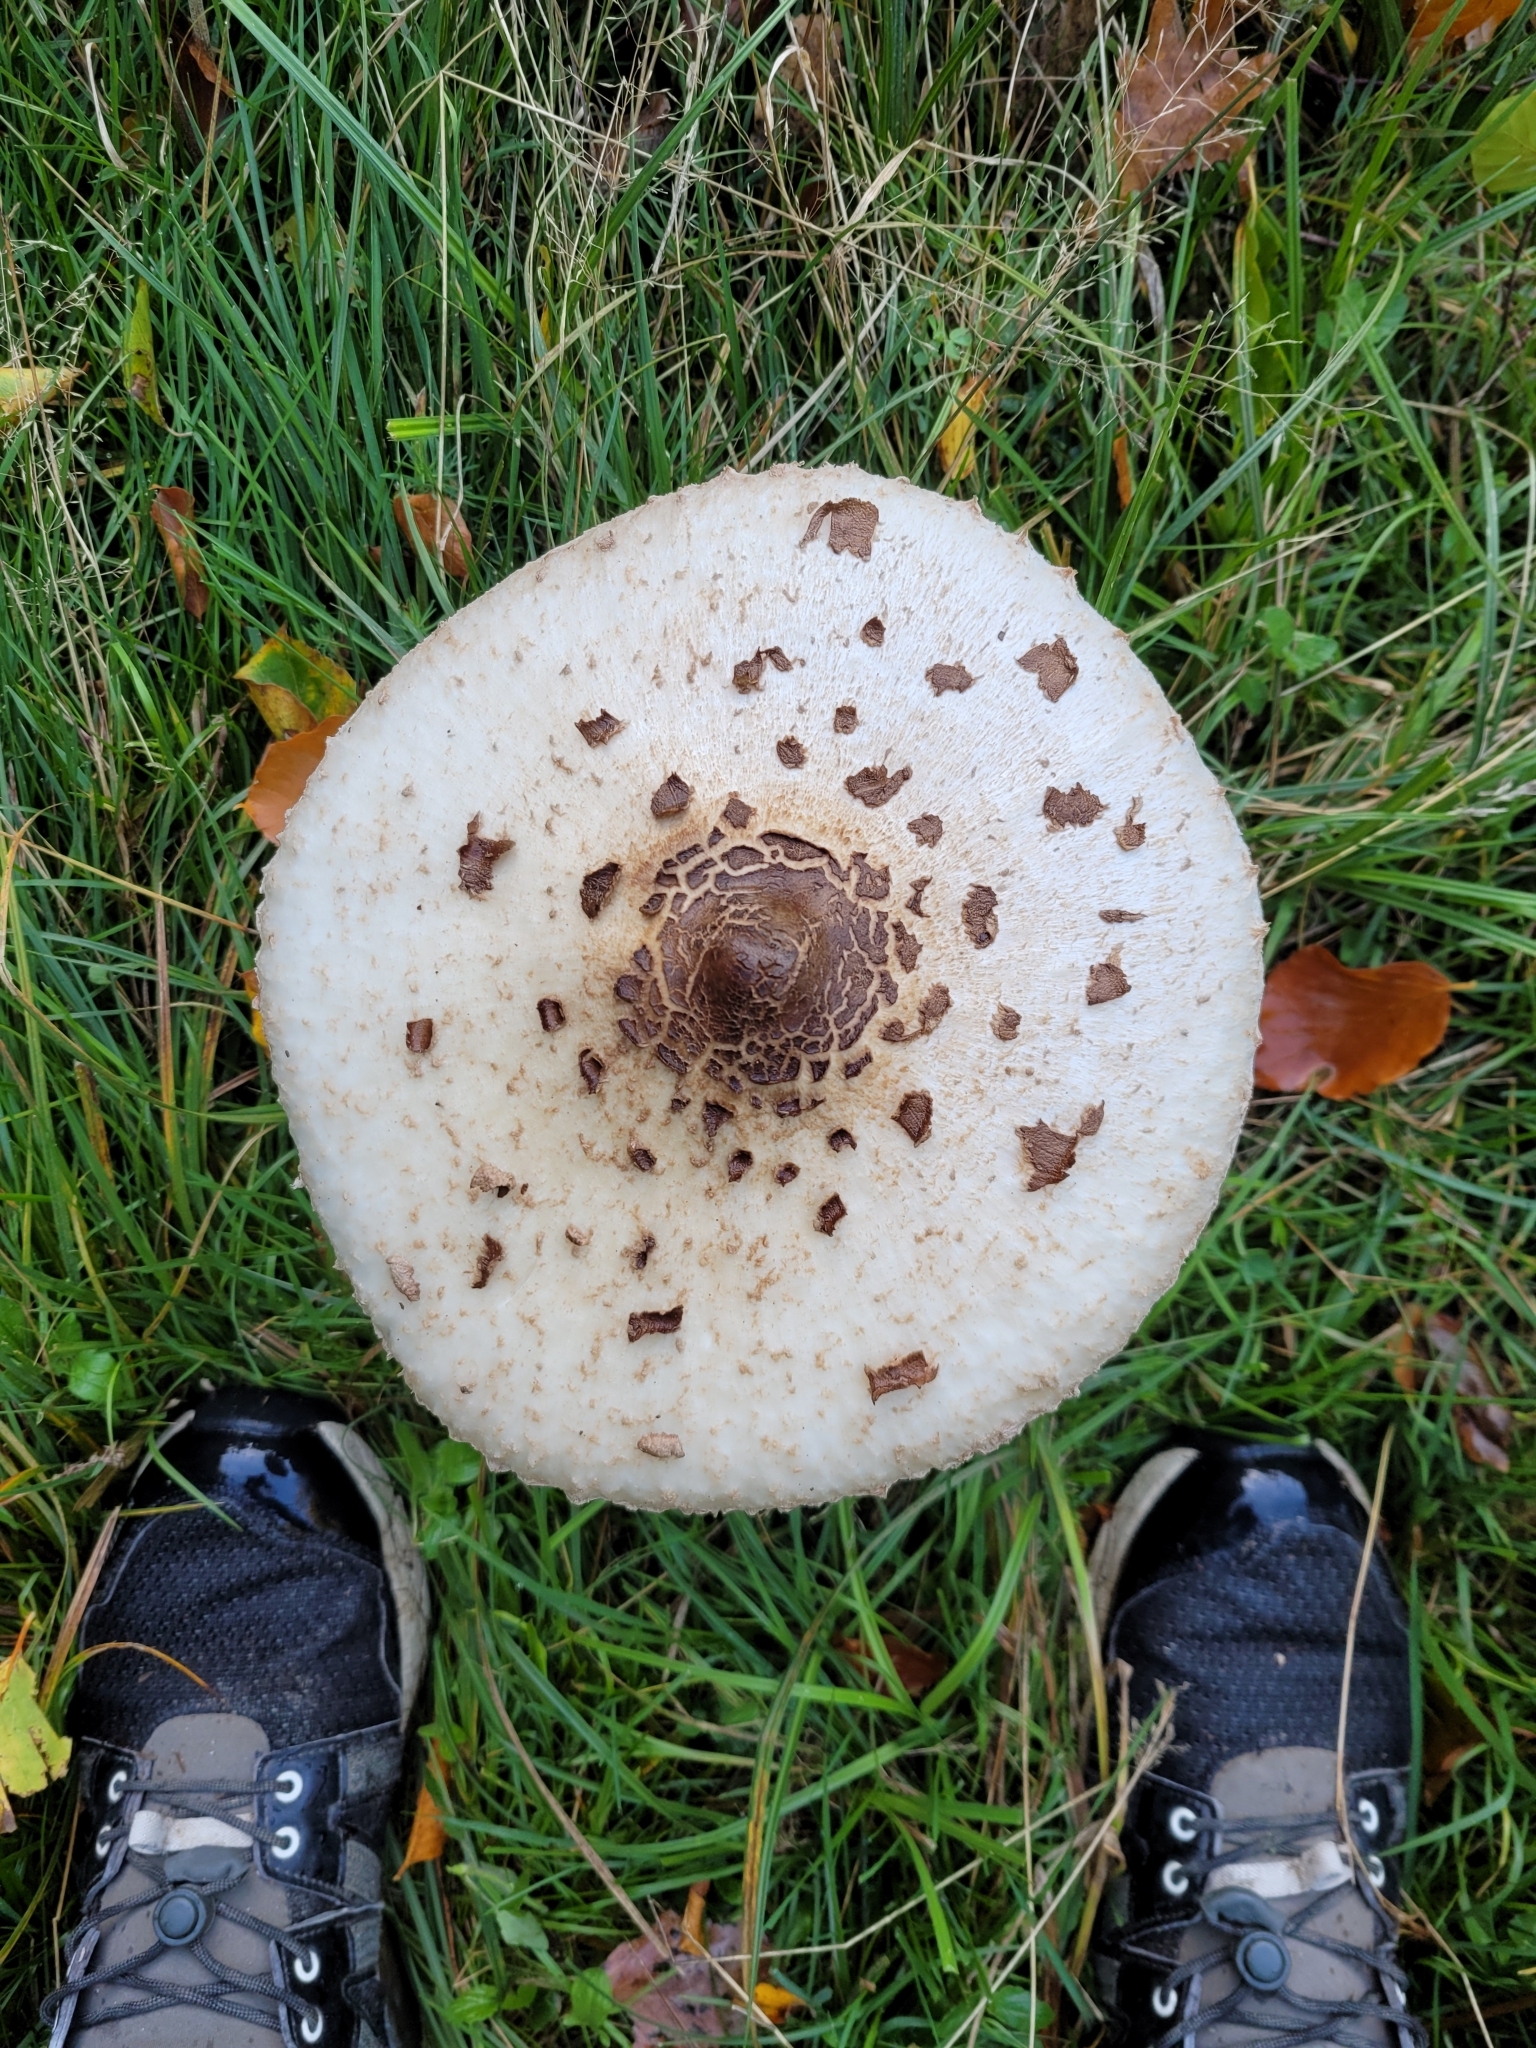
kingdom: Fungi
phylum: Basidiomycota
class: Agaricomycetes
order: Agaricales
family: Agaricaceae
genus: Macrolepiota
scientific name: Macrolepiota procera
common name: Parasol
